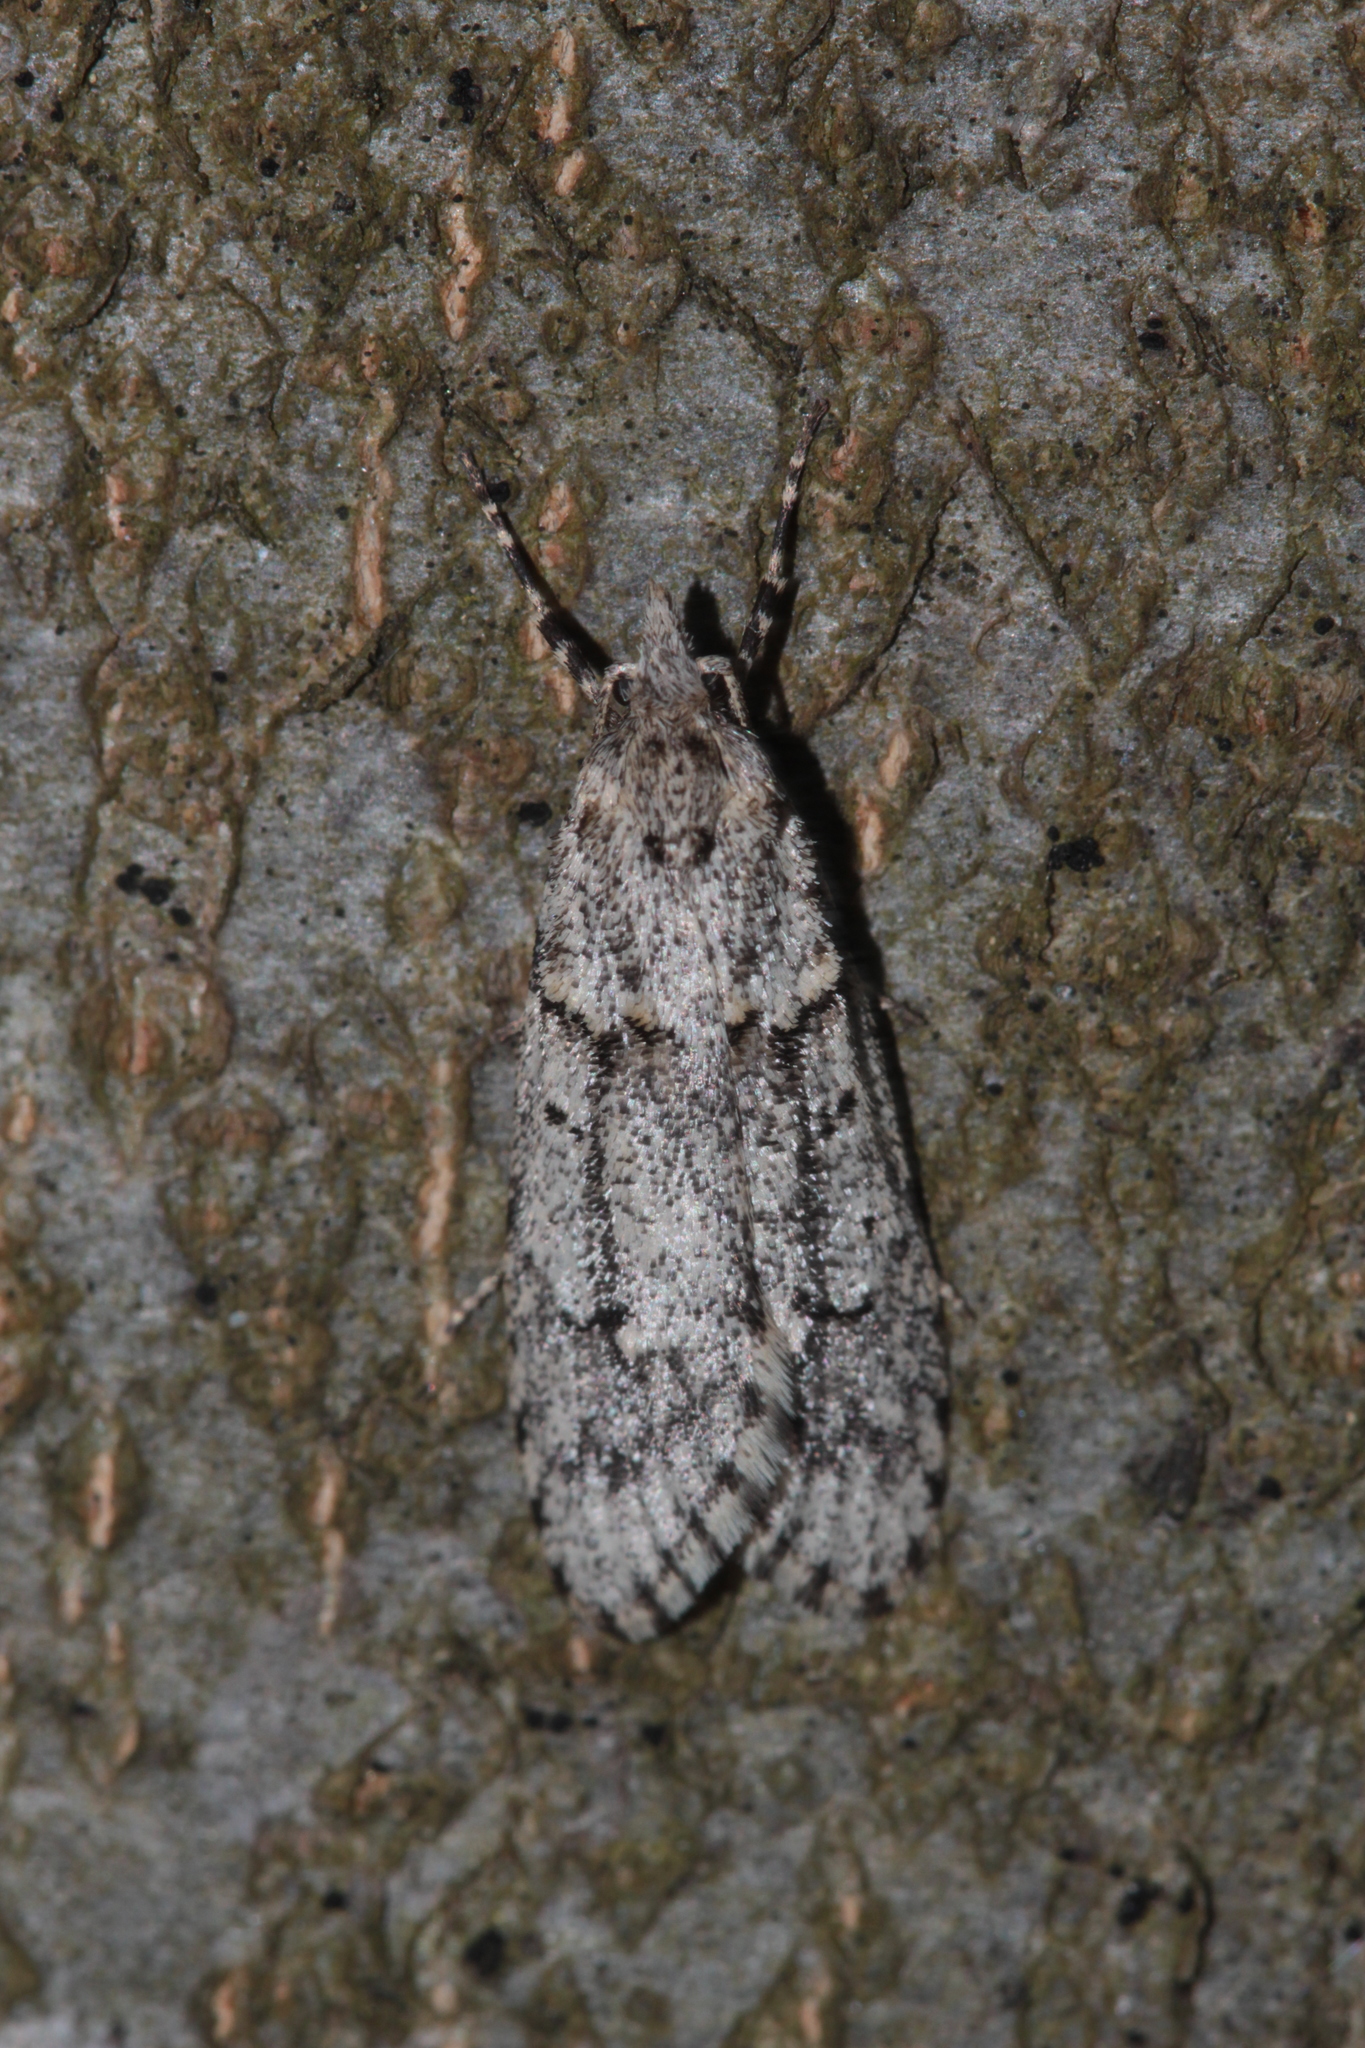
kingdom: Animalia
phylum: Arthropoda
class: Insecta
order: Lepidoptera
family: Lypusidae
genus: Diurnea
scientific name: Diurnea fagella
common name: March tubic
